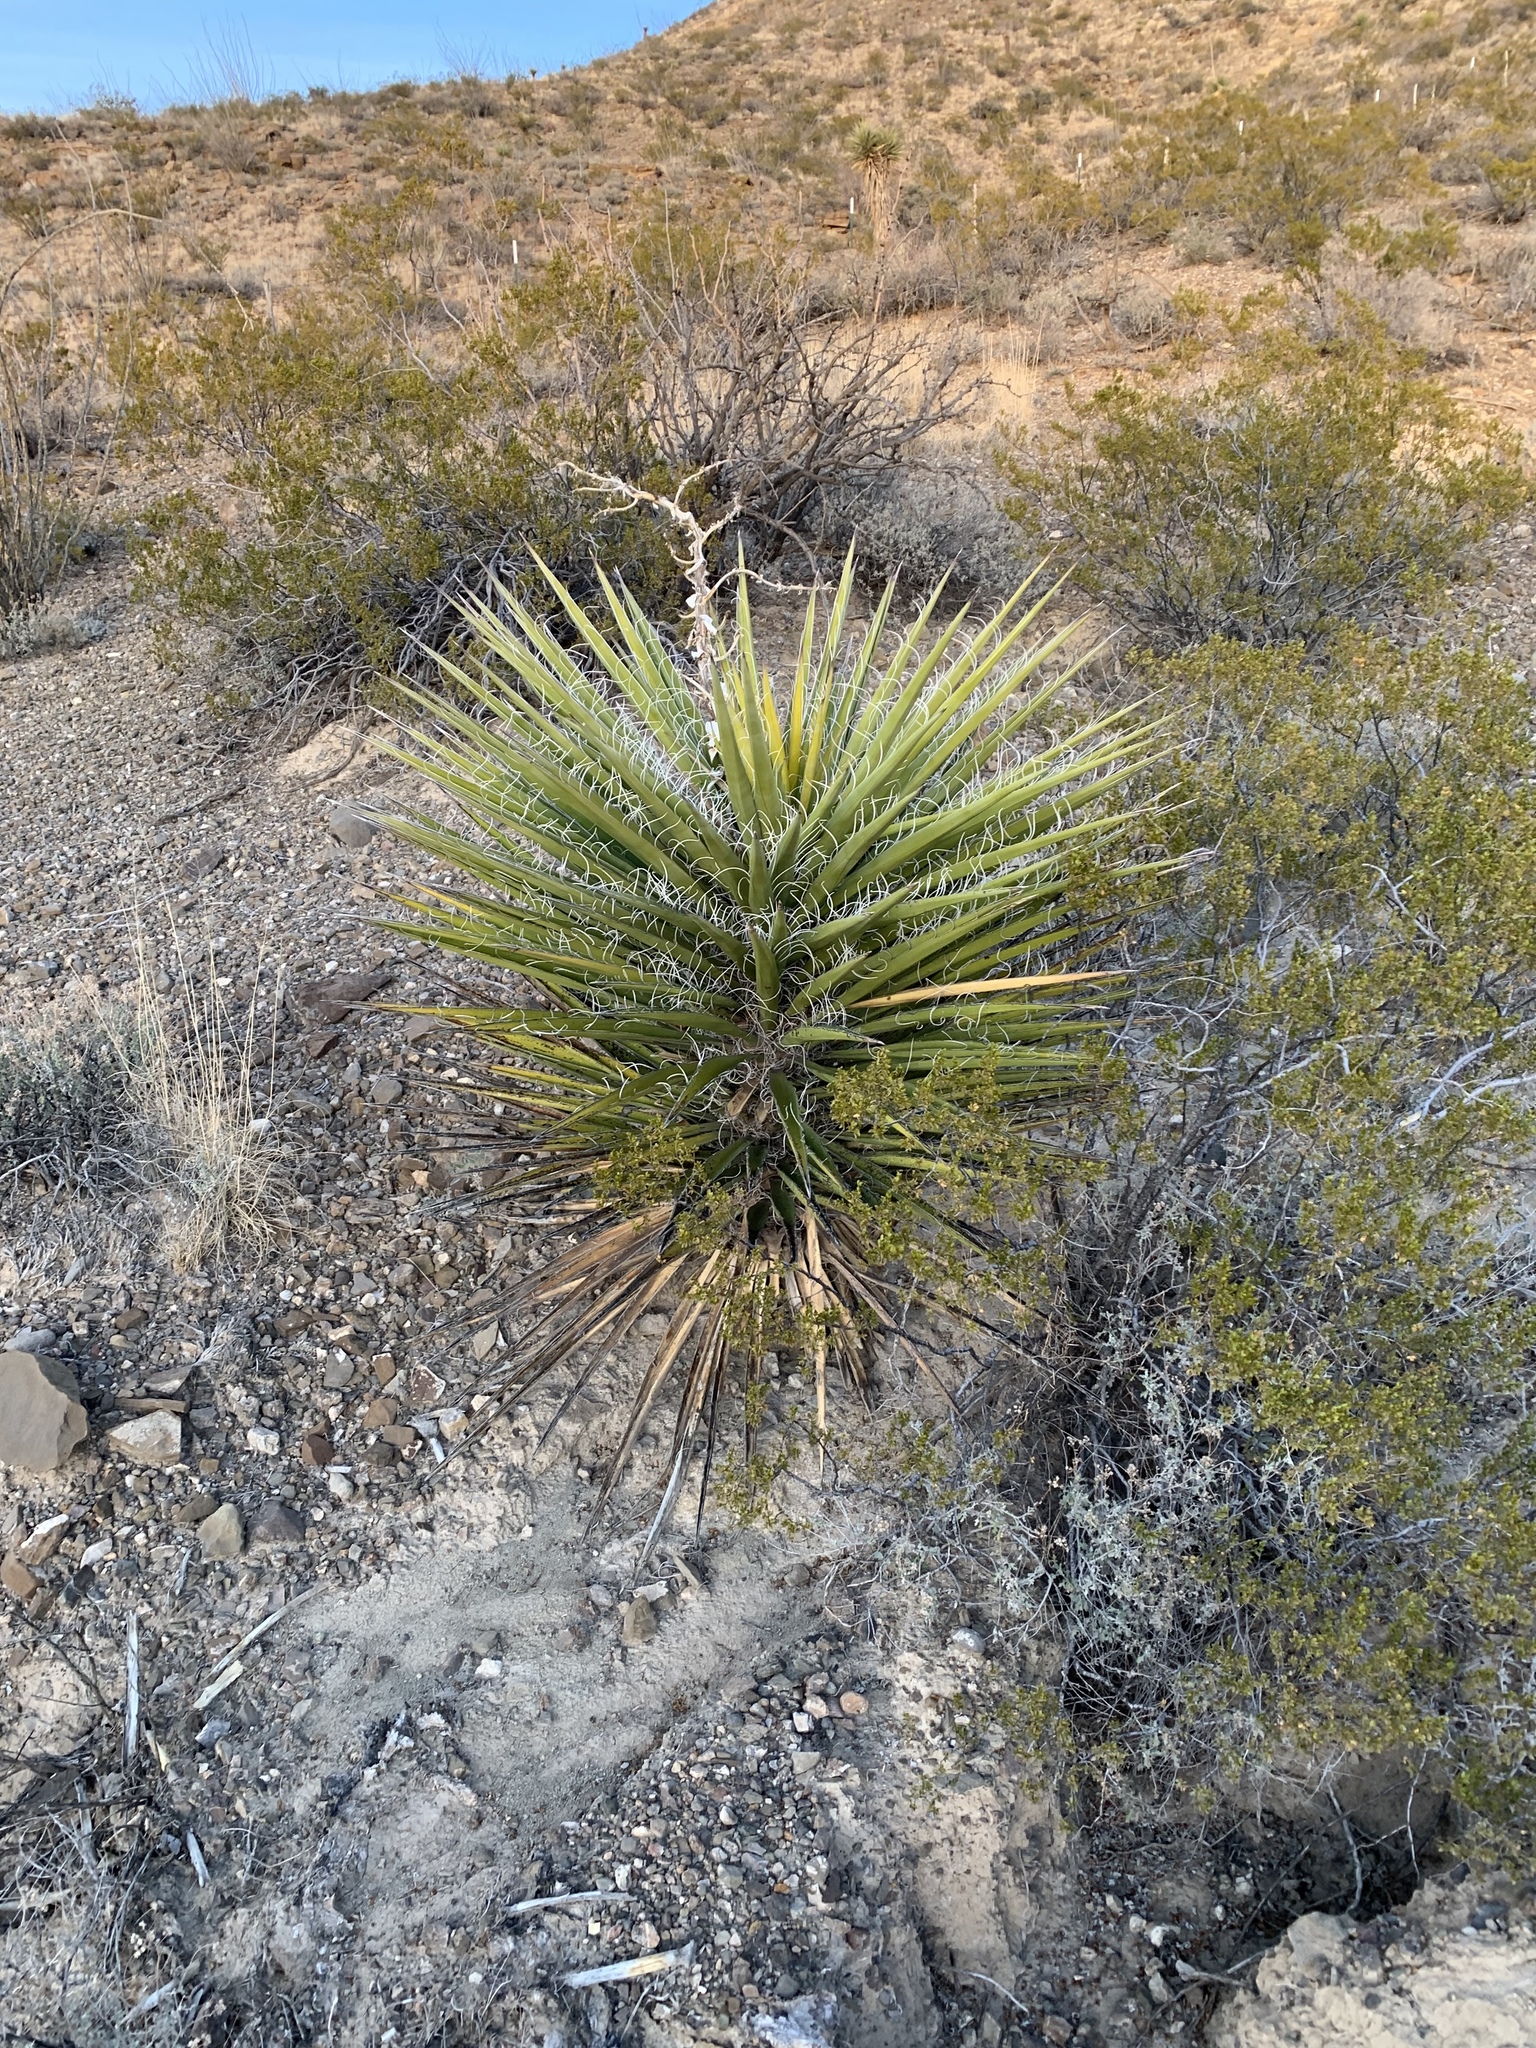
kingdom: Plantae
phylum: Tracheophyta
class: Liliopsida
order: Asparagales
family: Asparagaceae
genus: Yucca
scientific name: Yucca treculiana
